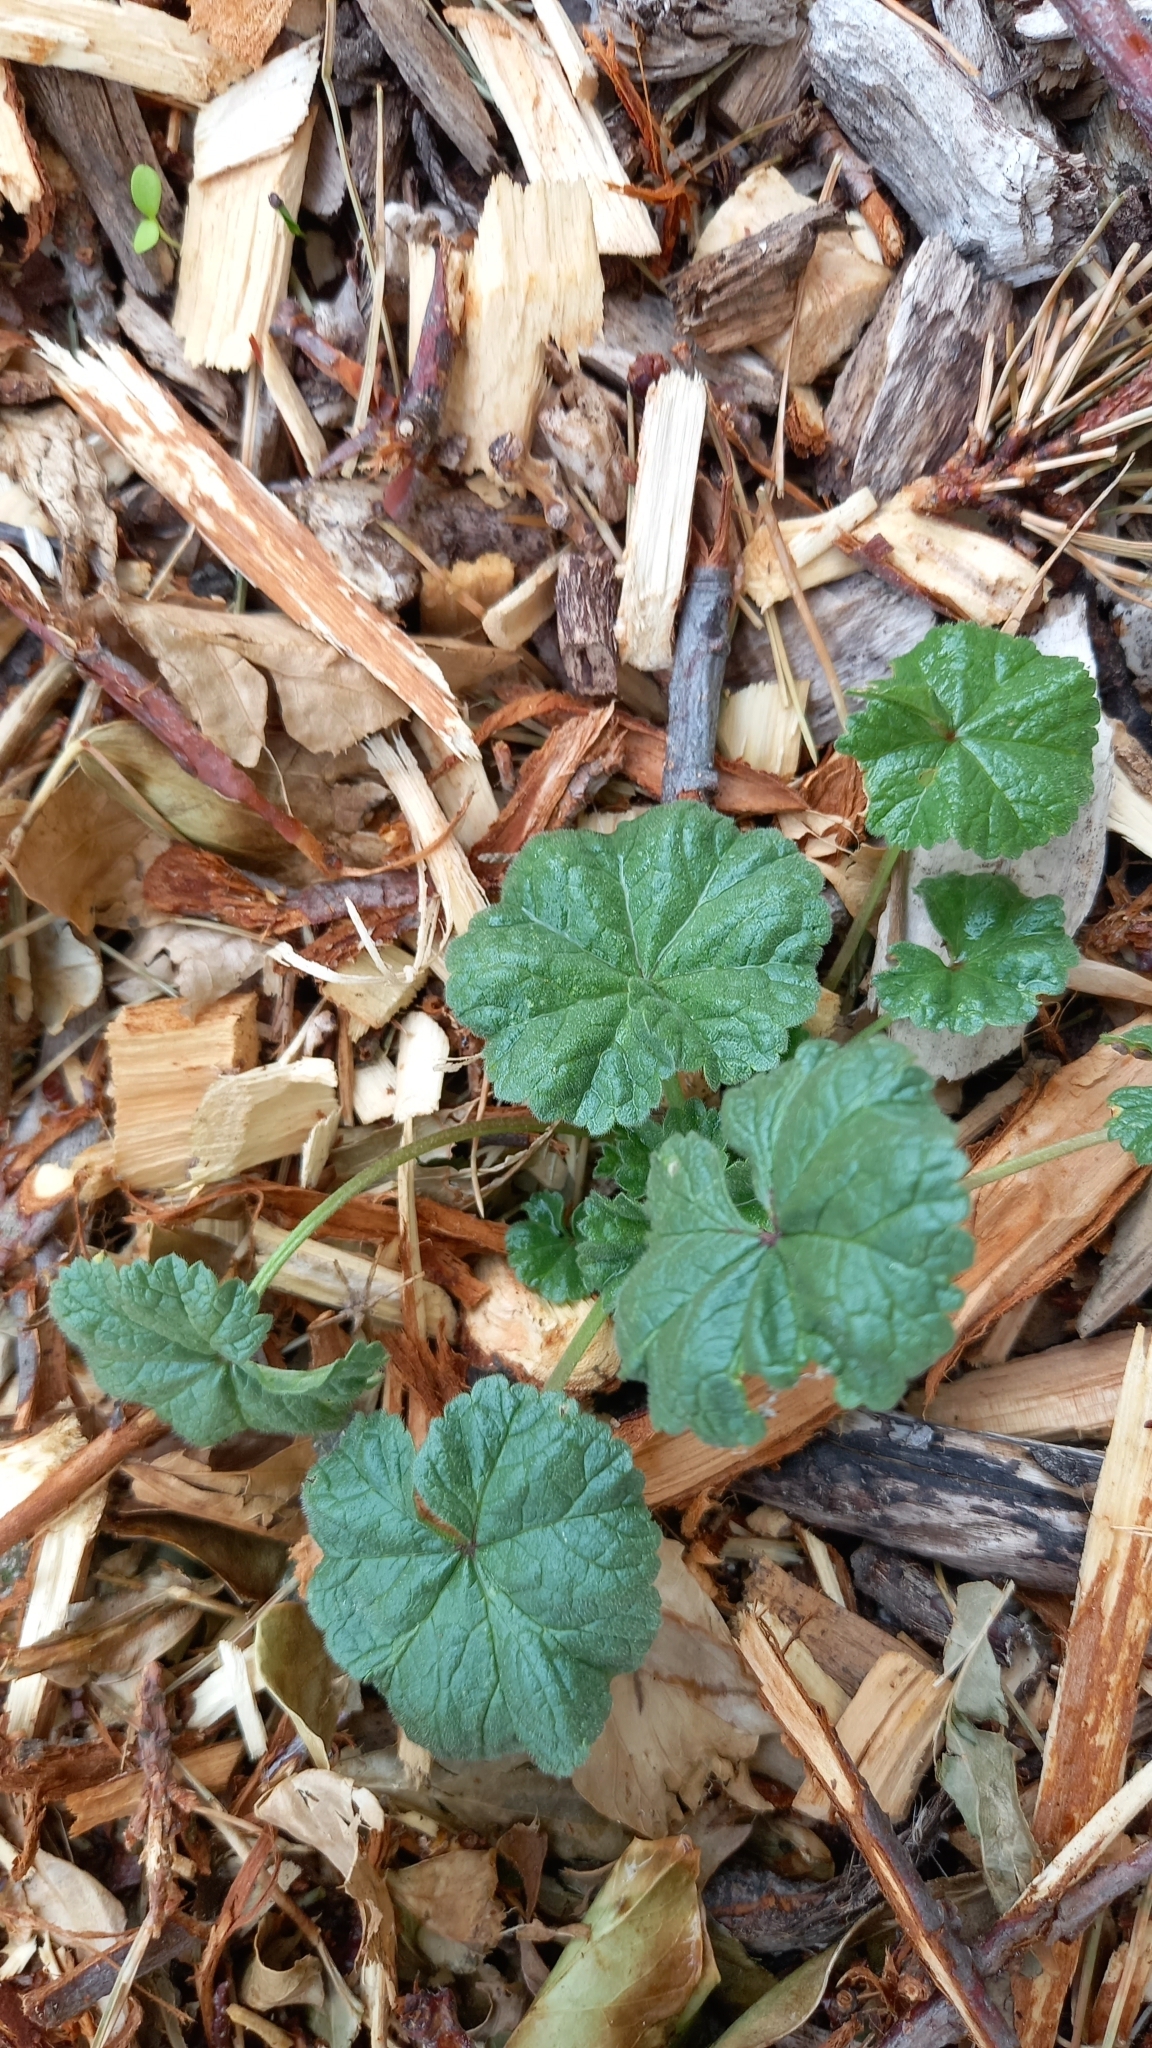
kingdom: Plantae
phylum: Tracheophyta
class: Magnoliopsida
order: Malvales
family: Malvaceae
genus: Malva
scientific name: Malva parviflora
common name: Least mallow
